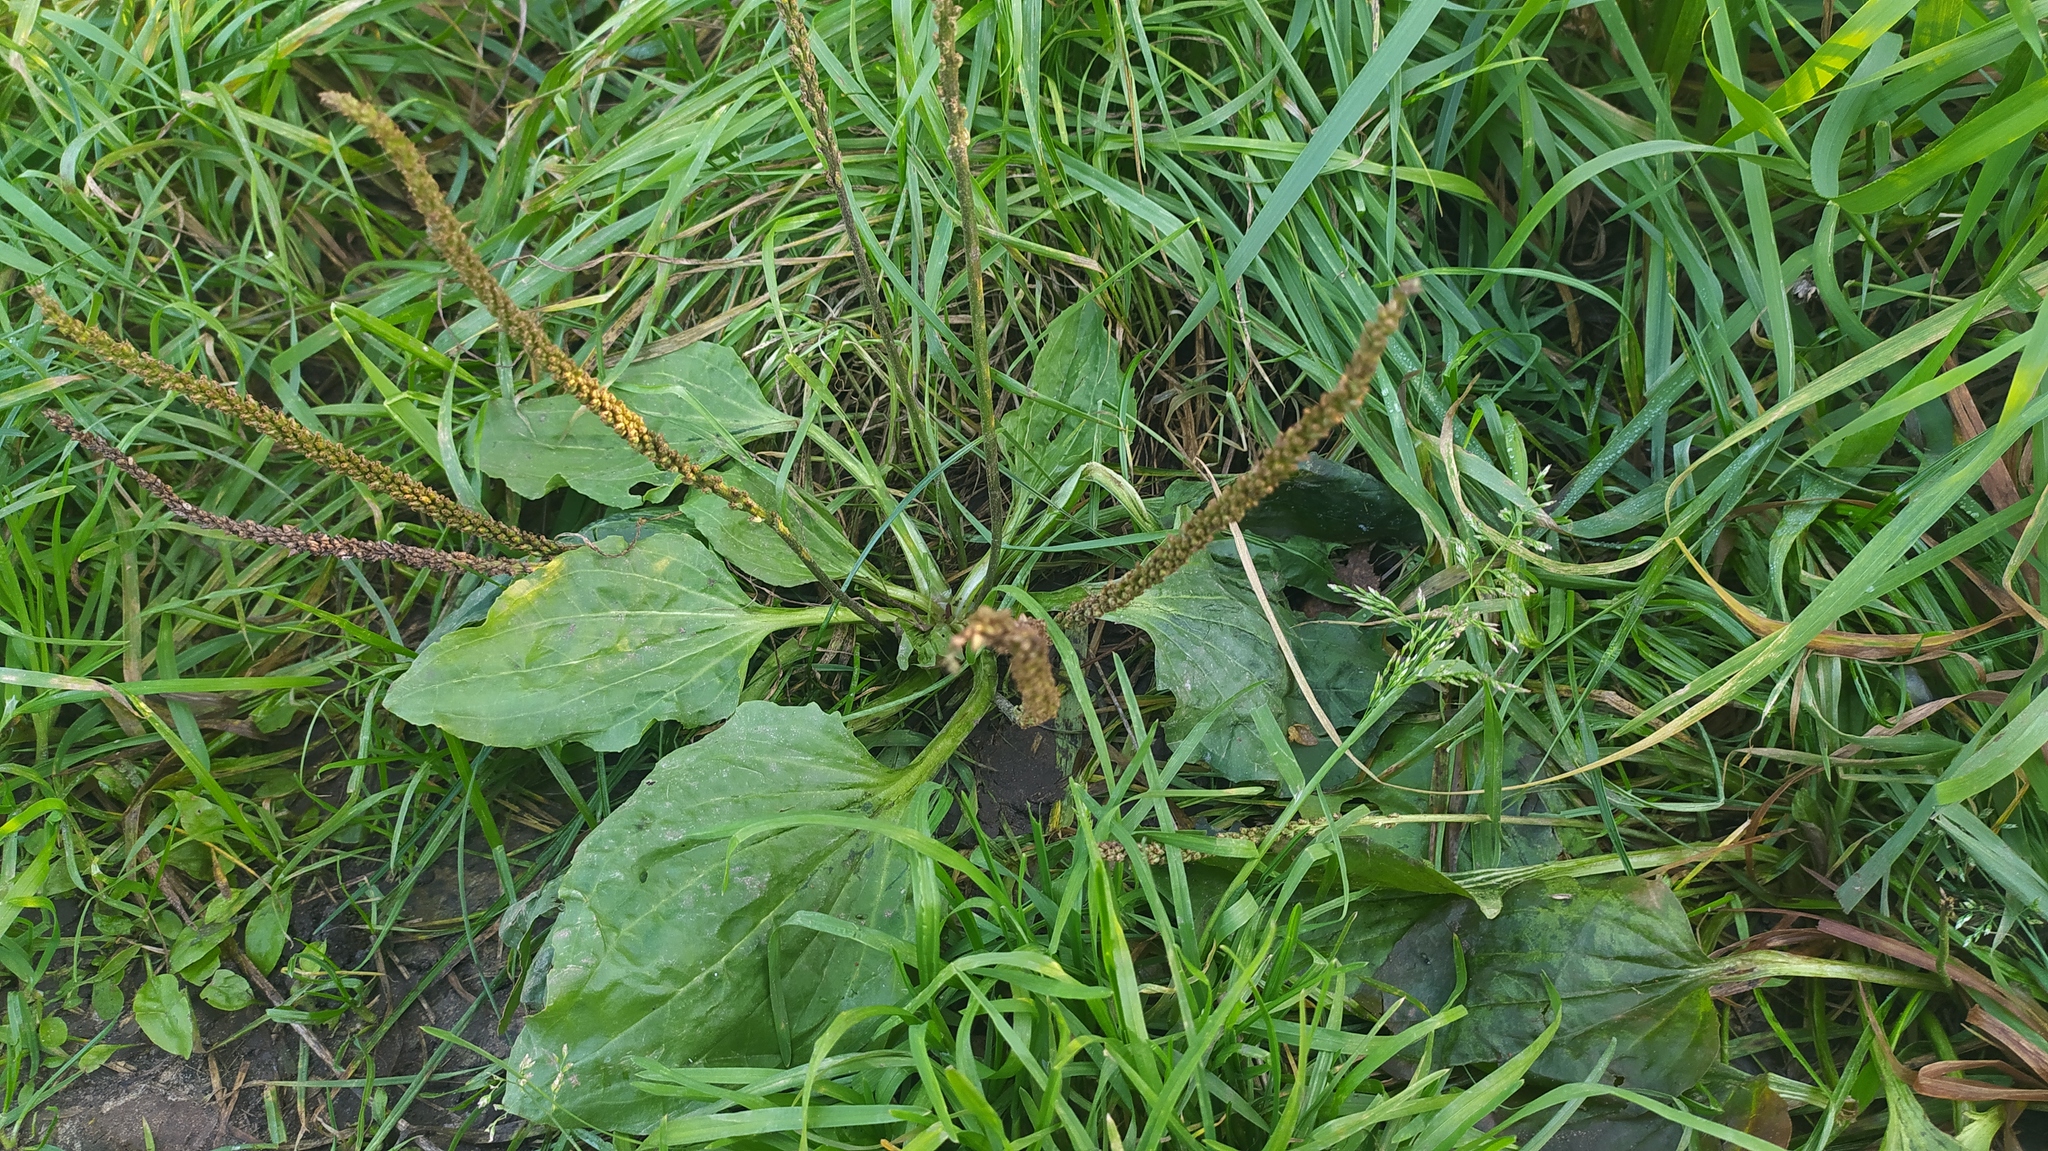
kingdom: Plantae
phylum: Tracheophyta
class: Magnoliopsida
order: Lamiales
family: Plantaginaceae
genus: Plantago
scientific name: Plantago major
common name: Common plantain
